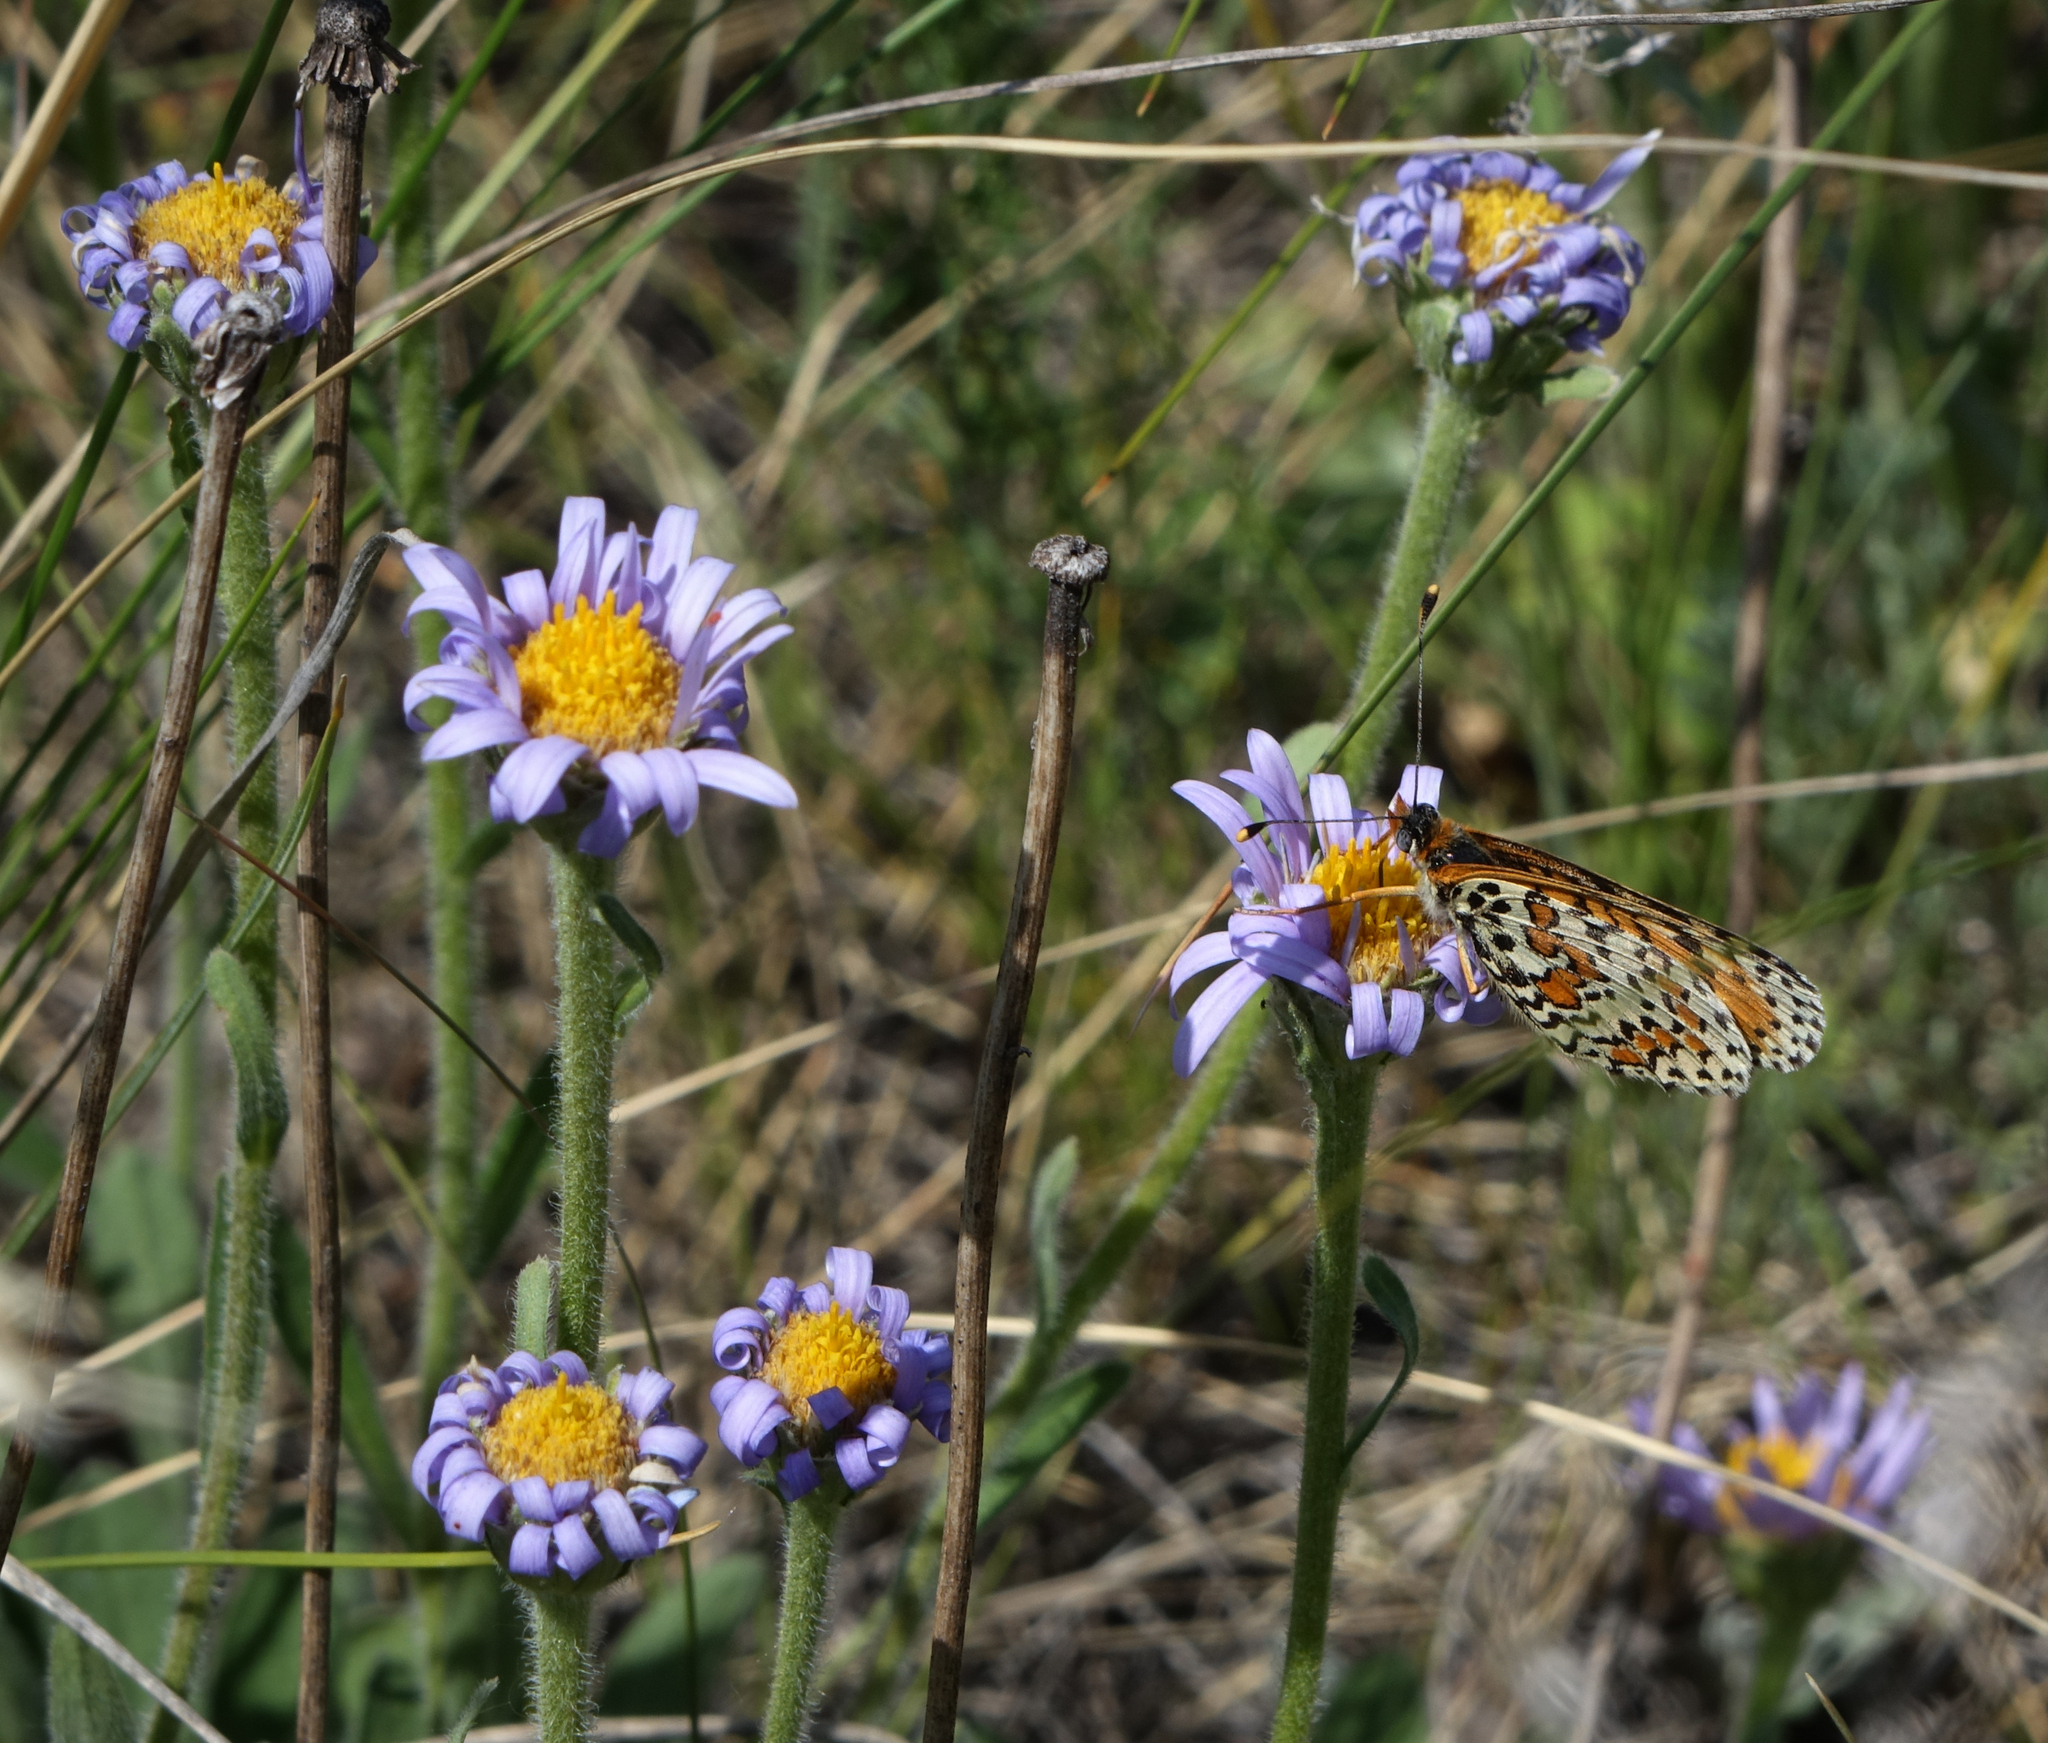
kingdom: Animalia
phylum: Arthropoda
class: Insecta
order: Lepidoptera
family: Nymphalidae
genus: Melitaea
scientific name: Melitaea didyma
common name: Spotted fritillary
